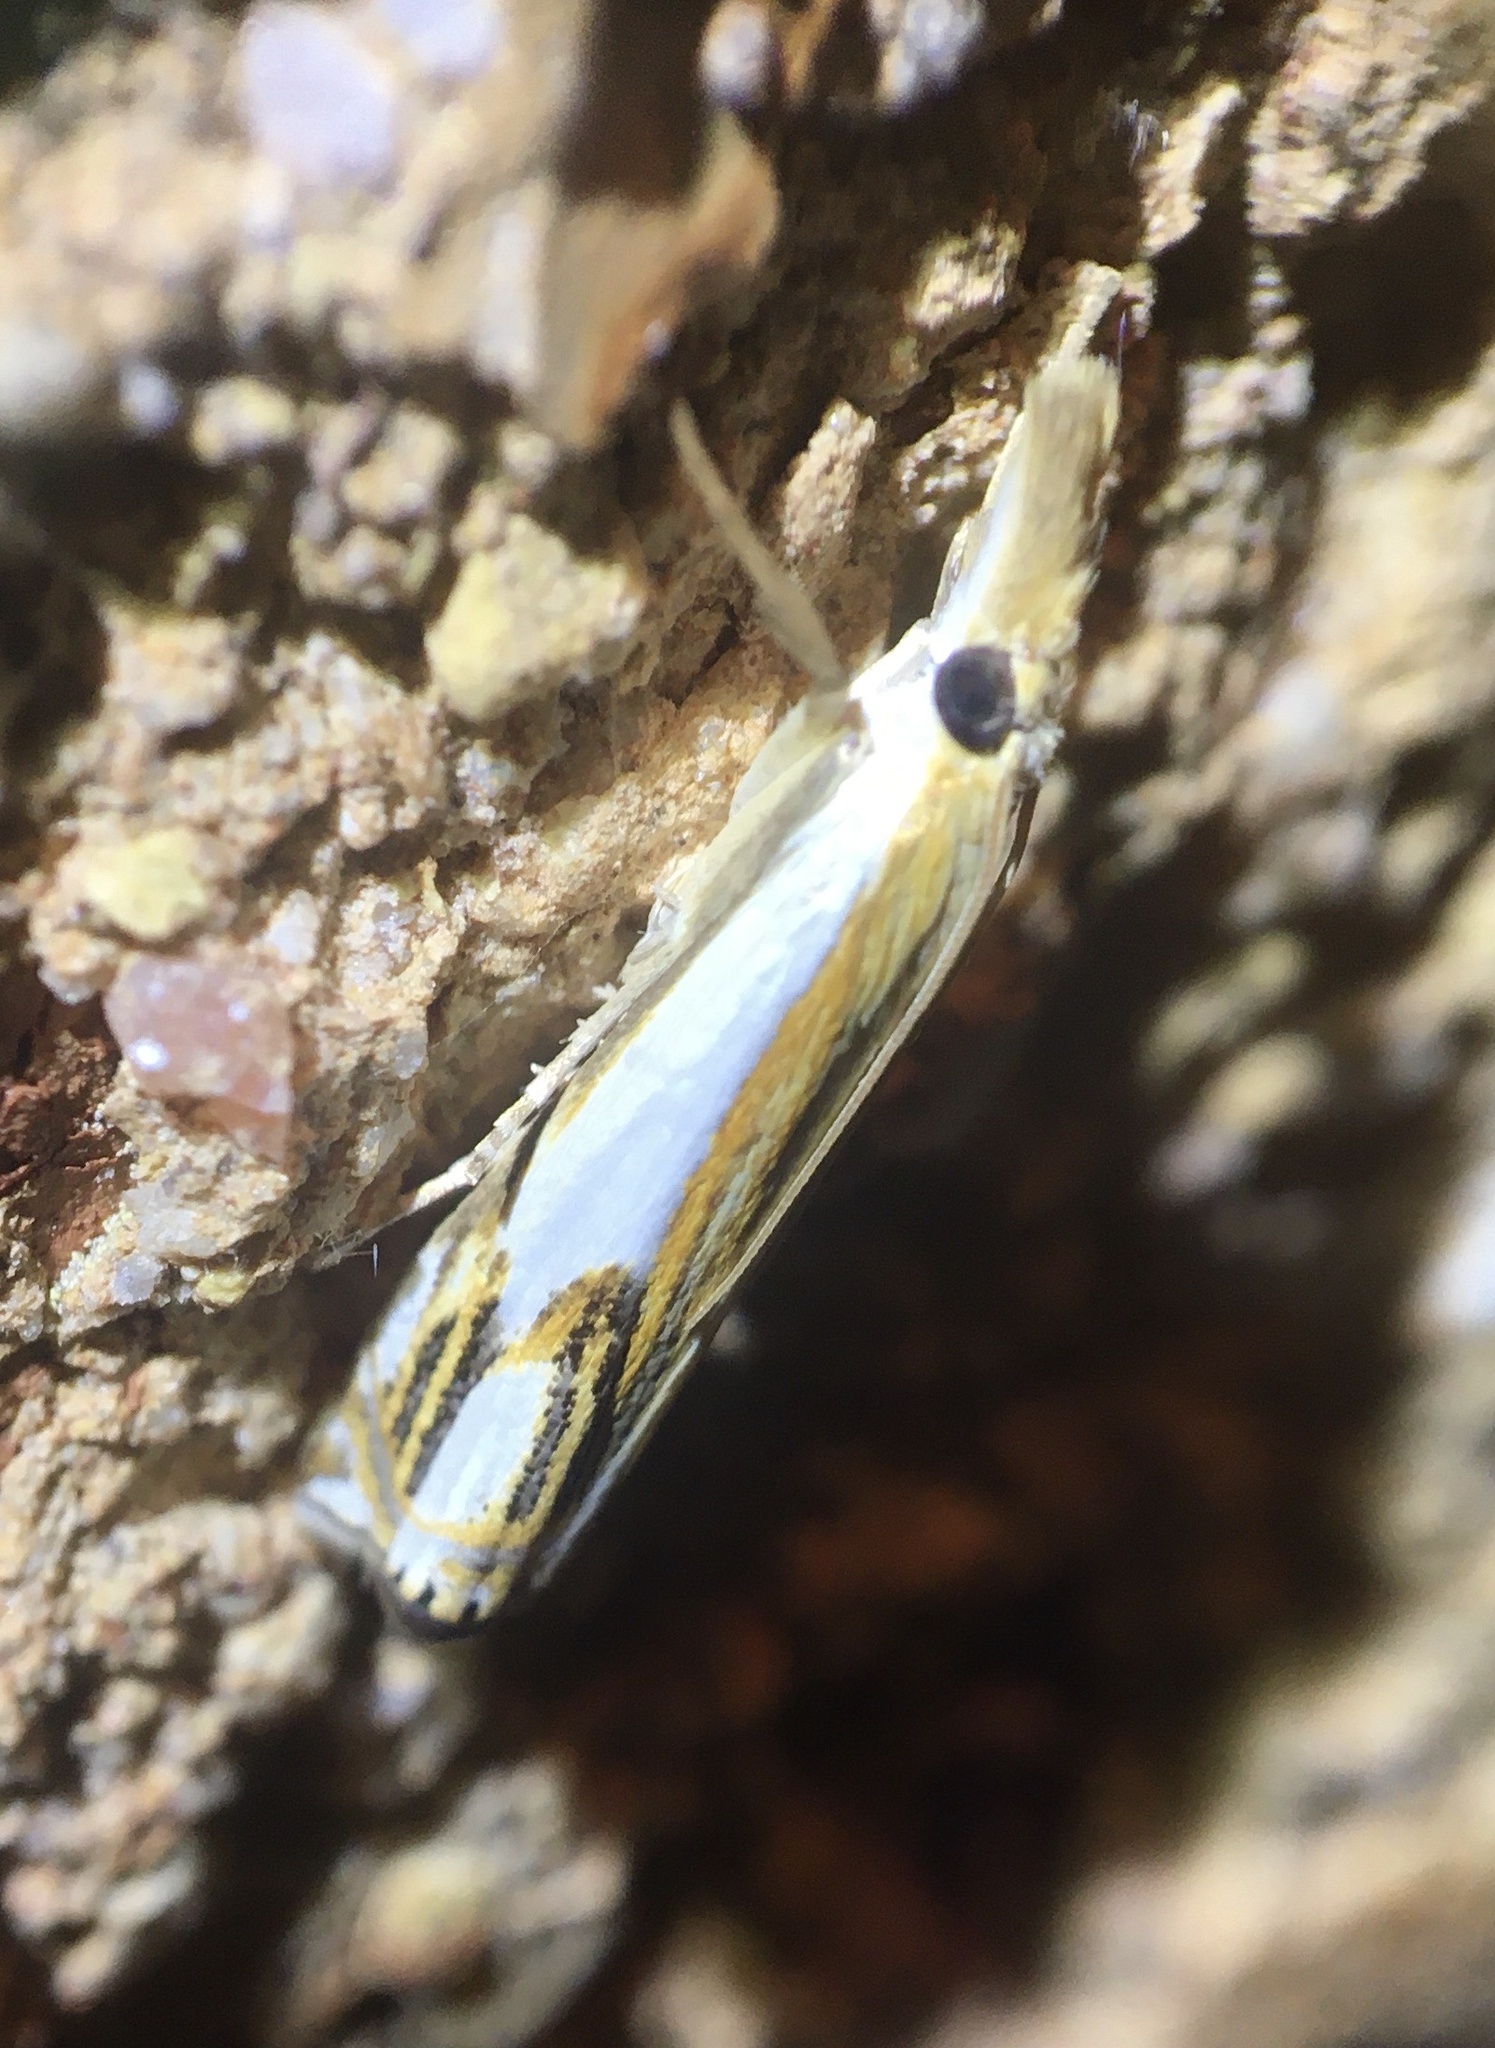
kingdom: Animalia
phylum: Arthropoda
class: Insecta
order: Lepidoptera
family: Crambidae
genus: Crambus
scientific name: Crambus agitatellus
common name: Double-banded grass-veneer
